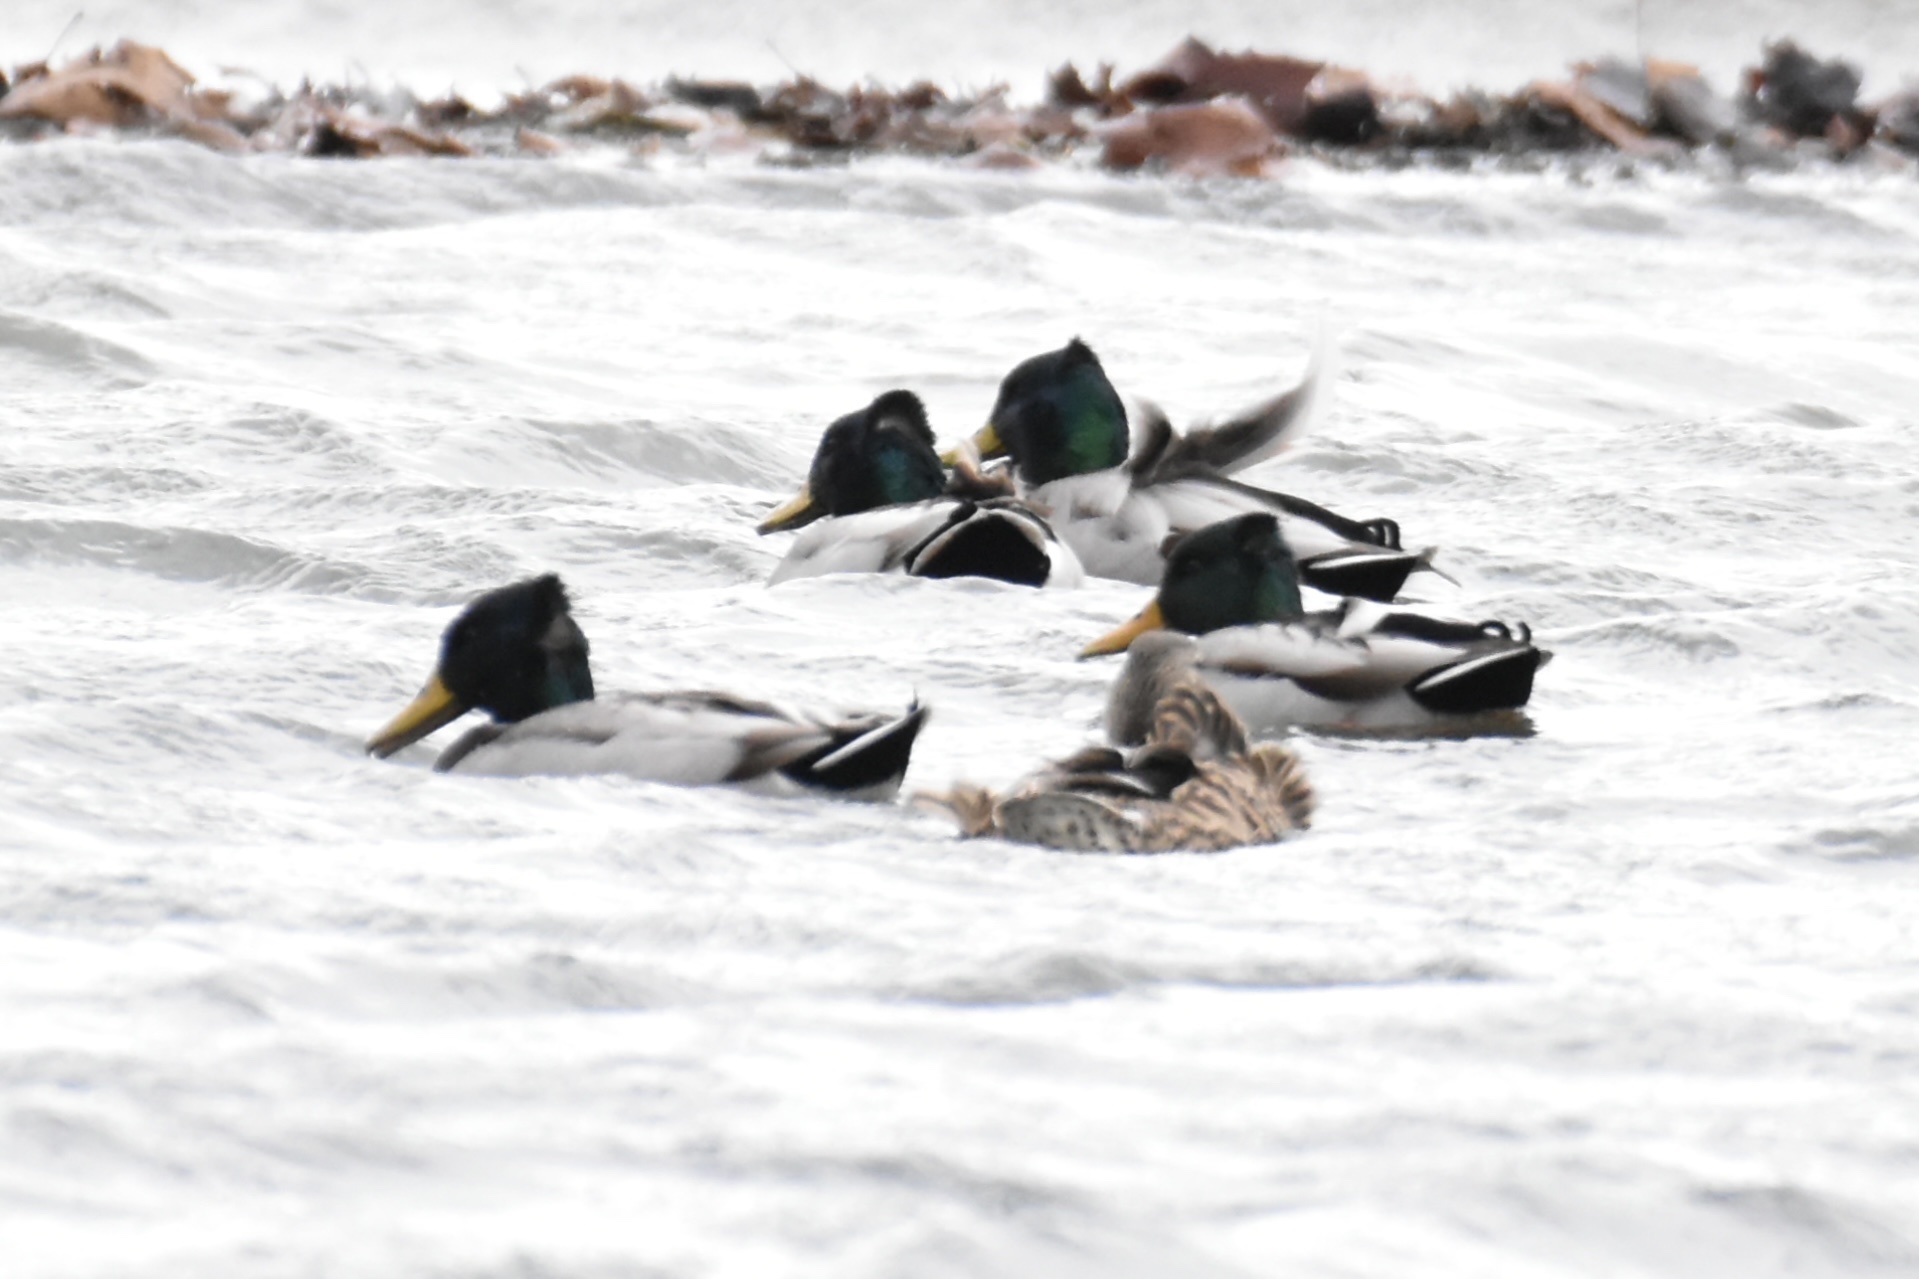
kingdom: Animalia
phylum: Chordata
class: Aves
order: Anseriformes
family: Anatidae
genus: Anas
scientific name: Anas platyrhynchos
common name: Mallard
